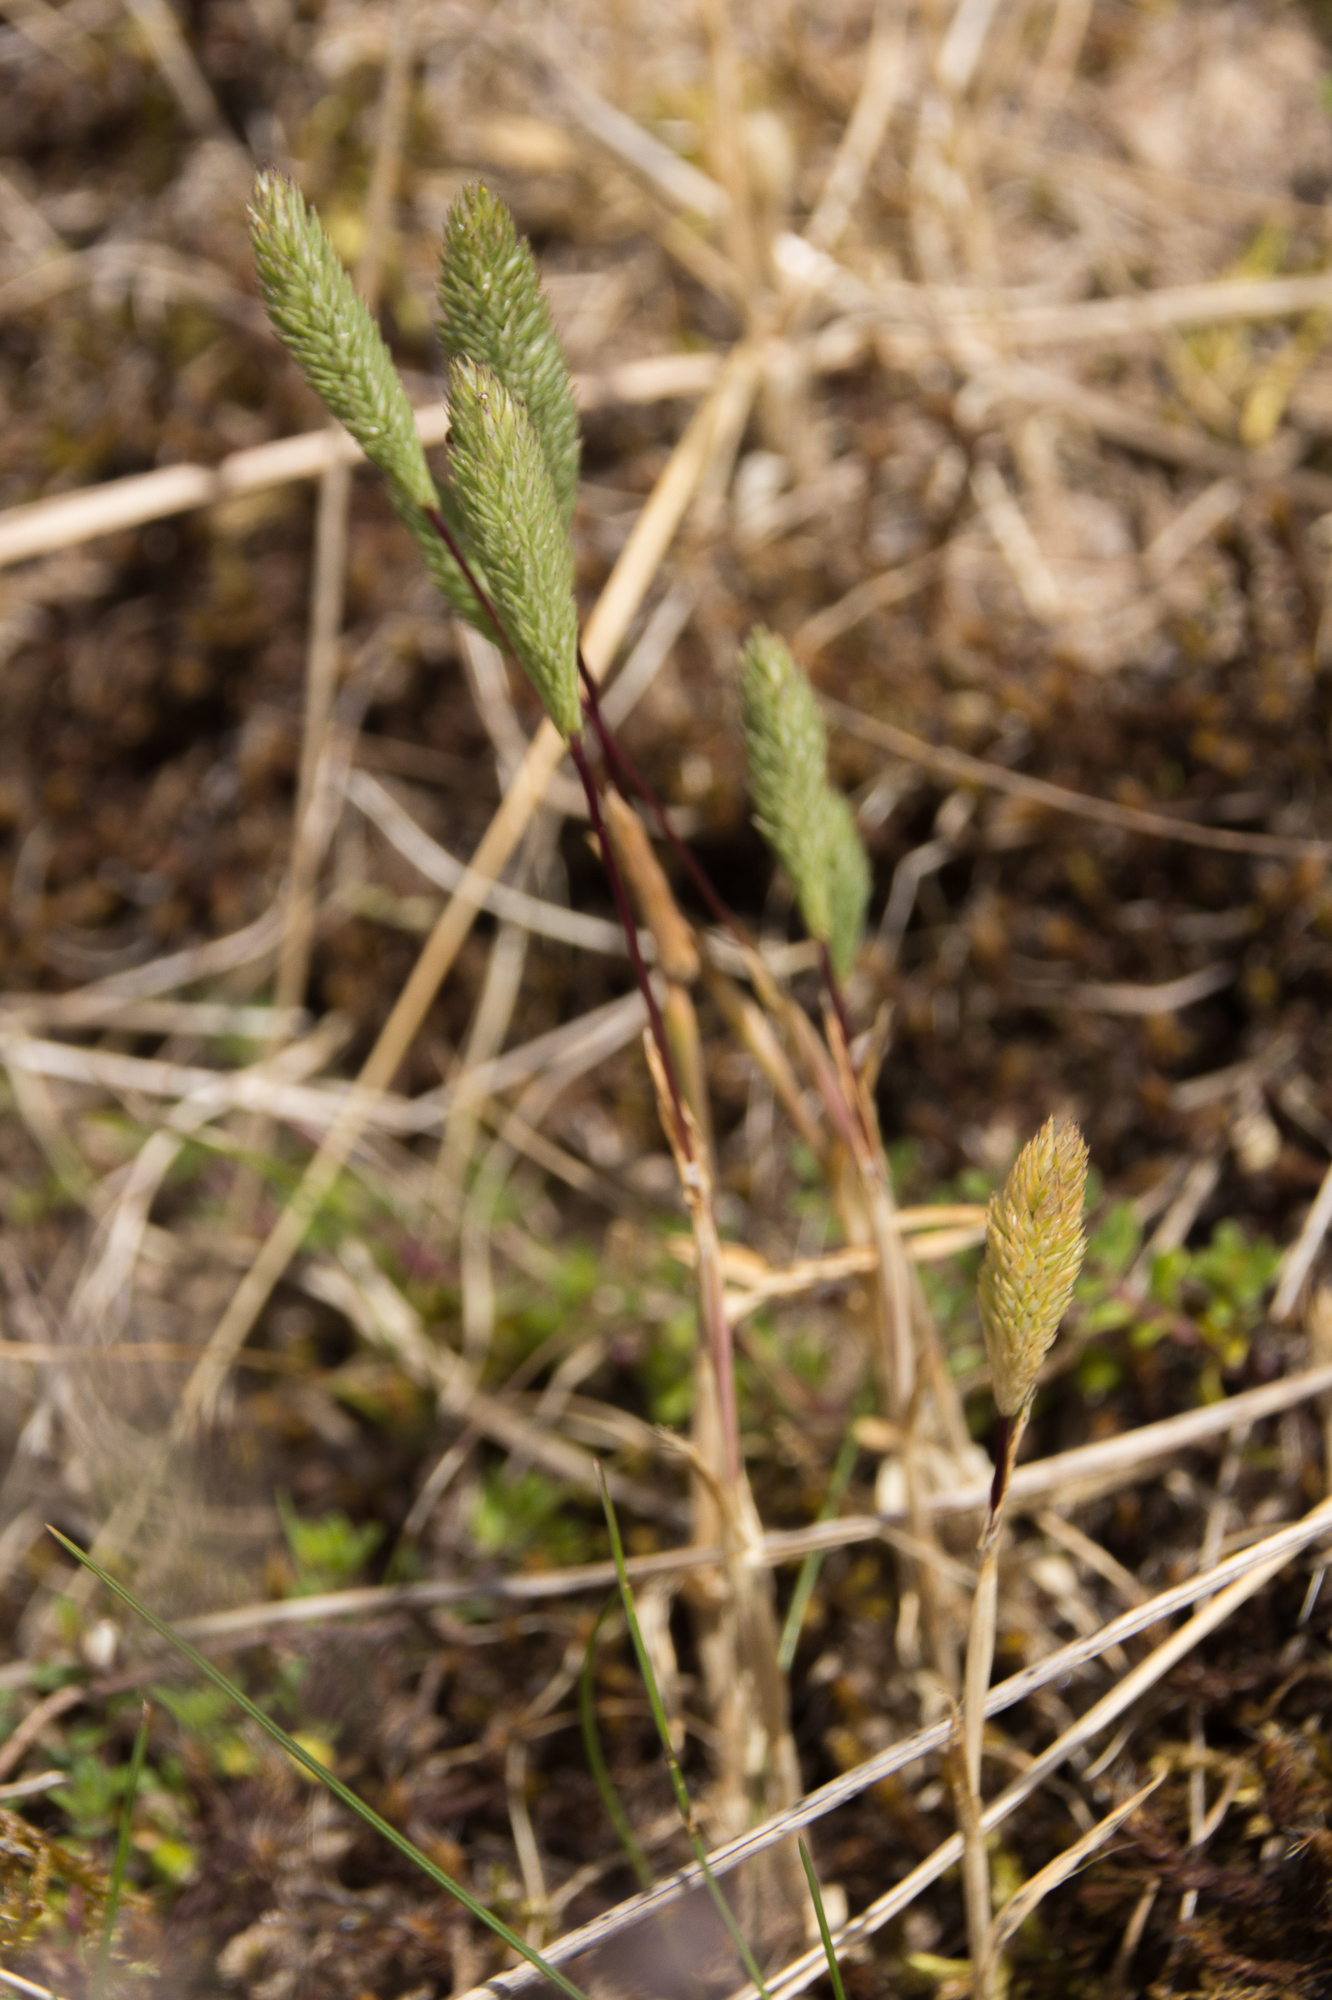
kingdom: Plantae
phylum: Tracheophyta
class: Liliopsida
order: Poales
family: Poaceae
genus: Phleum
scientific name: Phleum arenarium
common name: Sand cat's-tail
